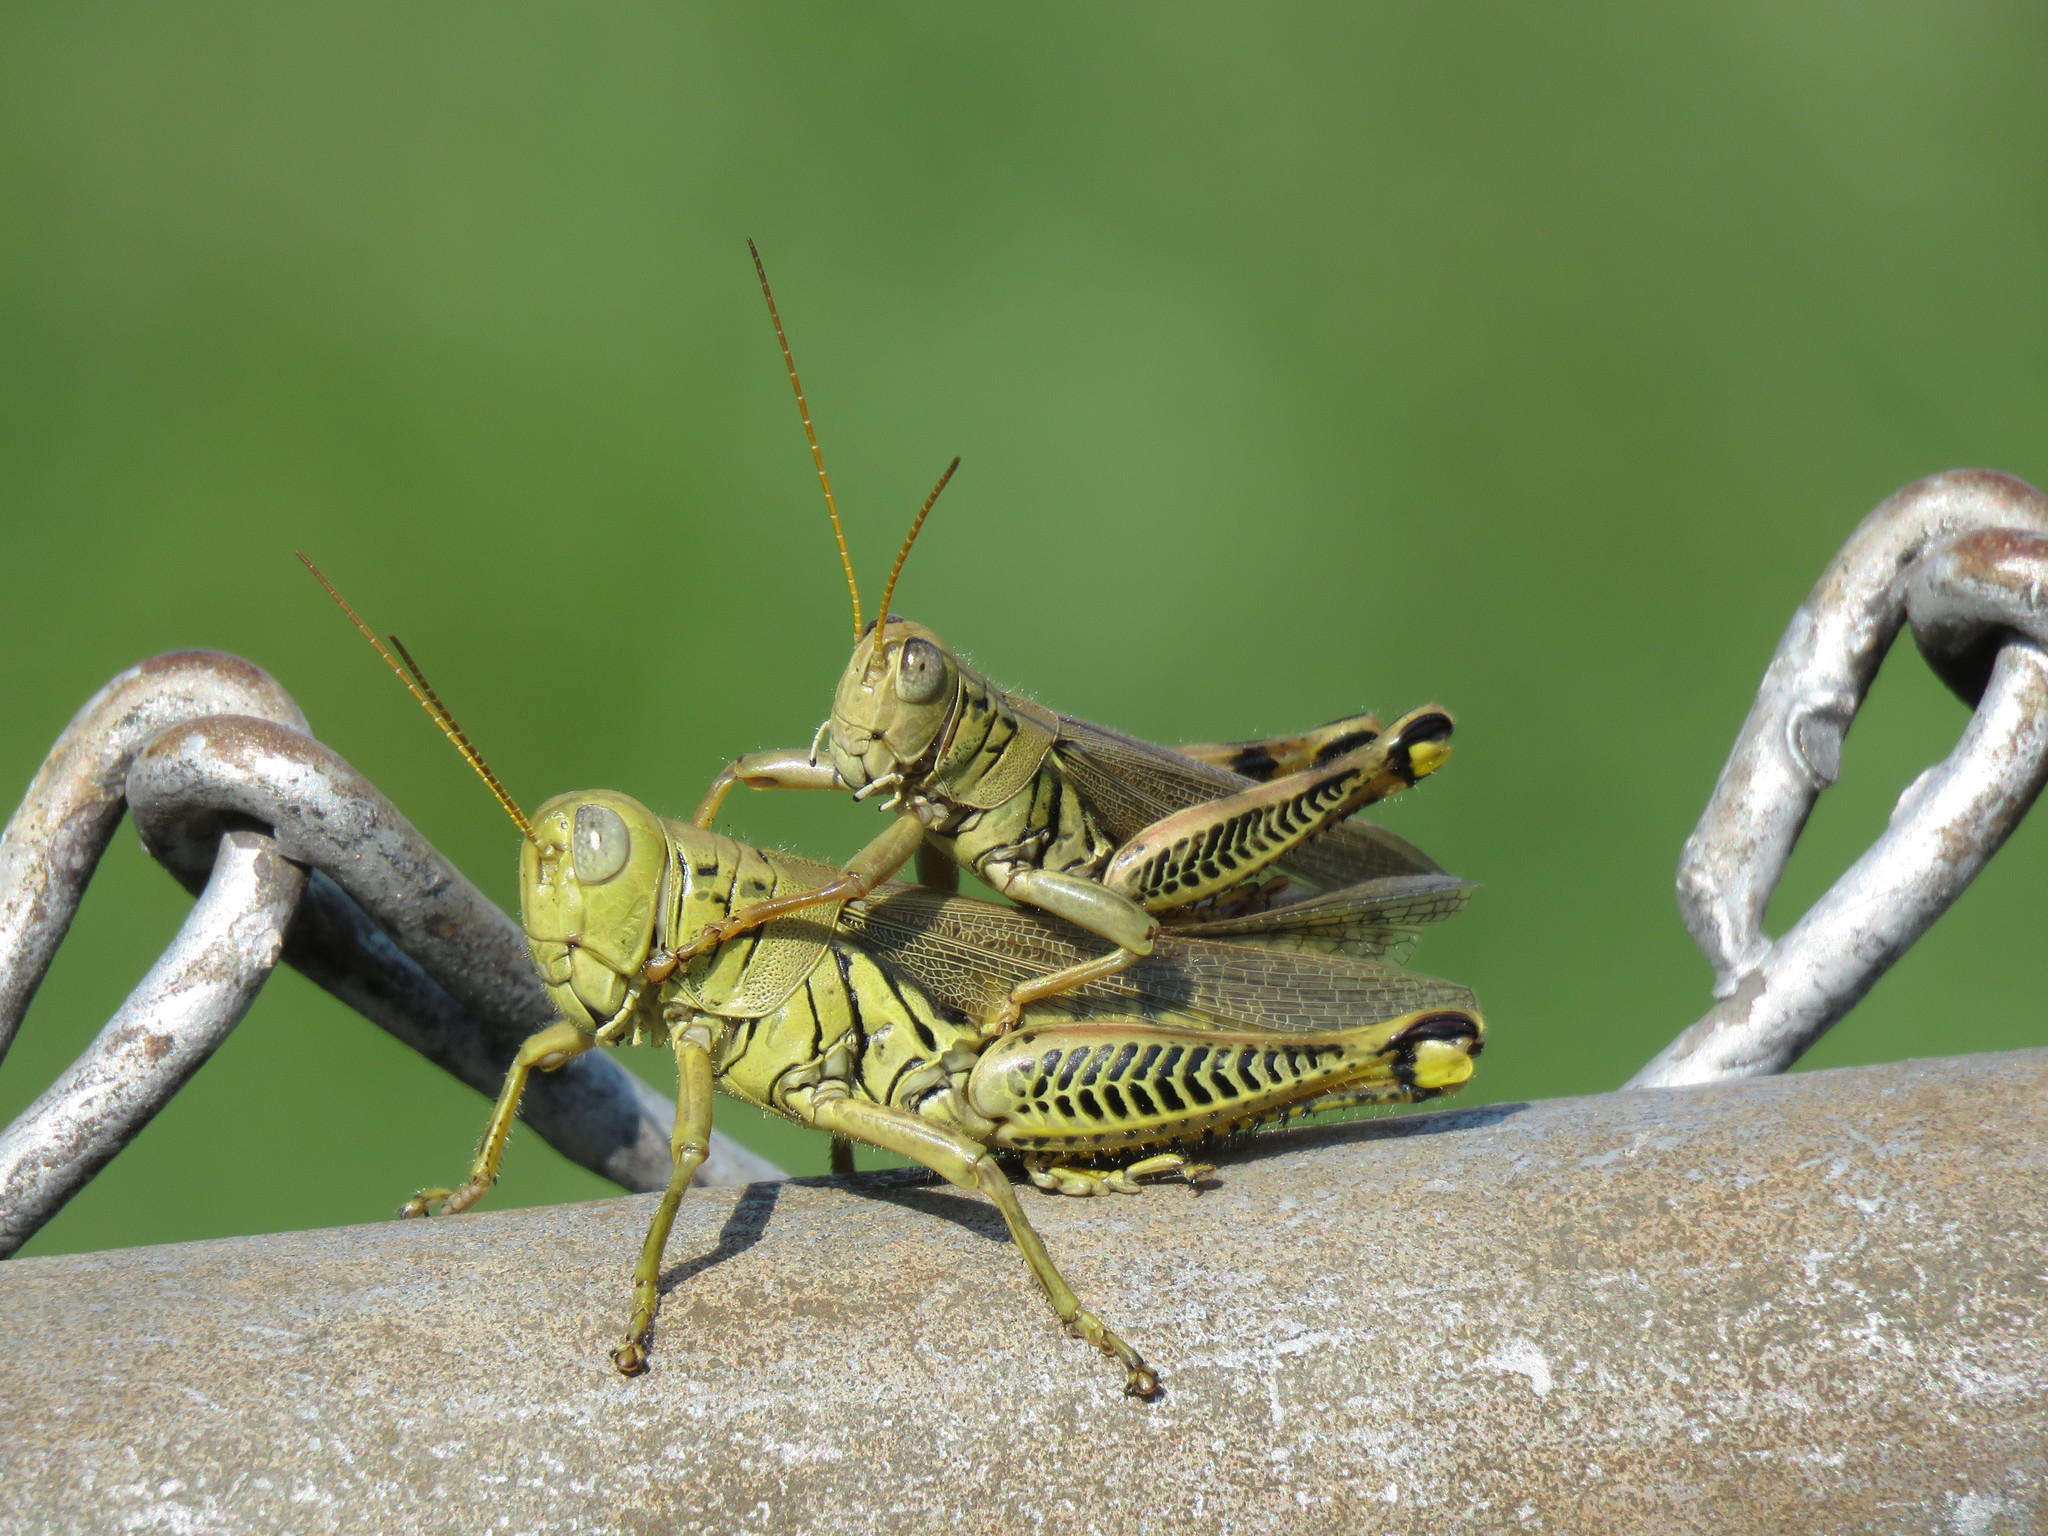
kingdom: Animalia
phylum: Arthropoda
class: Insecta
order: Orthoptera
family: Acrididae
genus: Melanoplus
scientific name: Melanoplus differentialis
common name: Differential grasshopper
